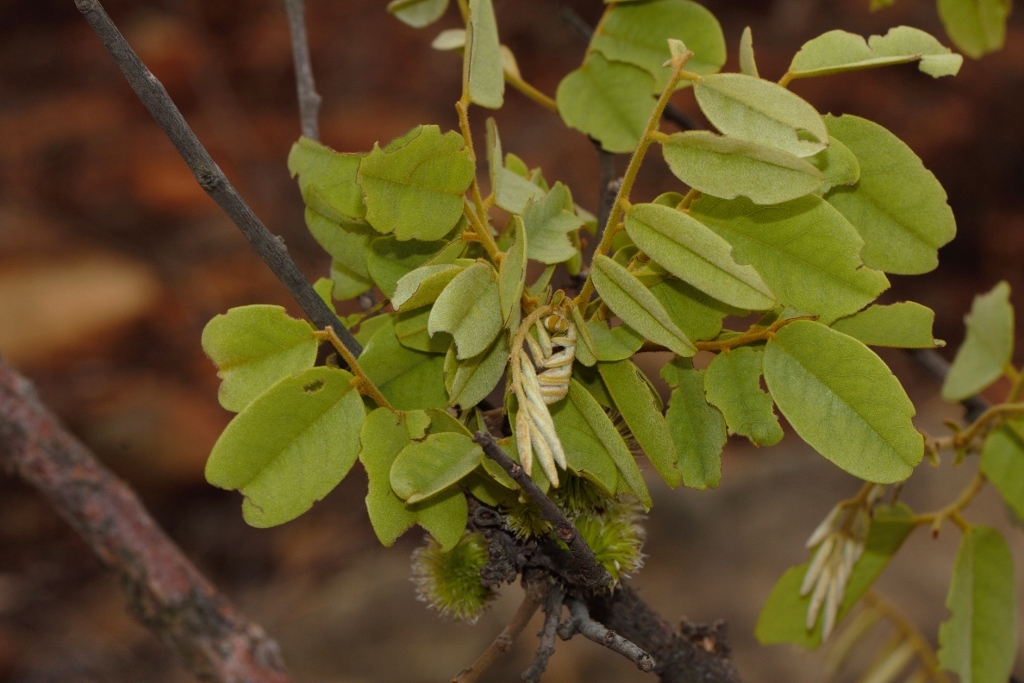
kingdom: Plantae
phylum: Tracheophyta
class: Magnoliopsida
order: Fabales
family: Fabaceae
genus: Dalbergia
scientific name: Dalbergia nitidula
